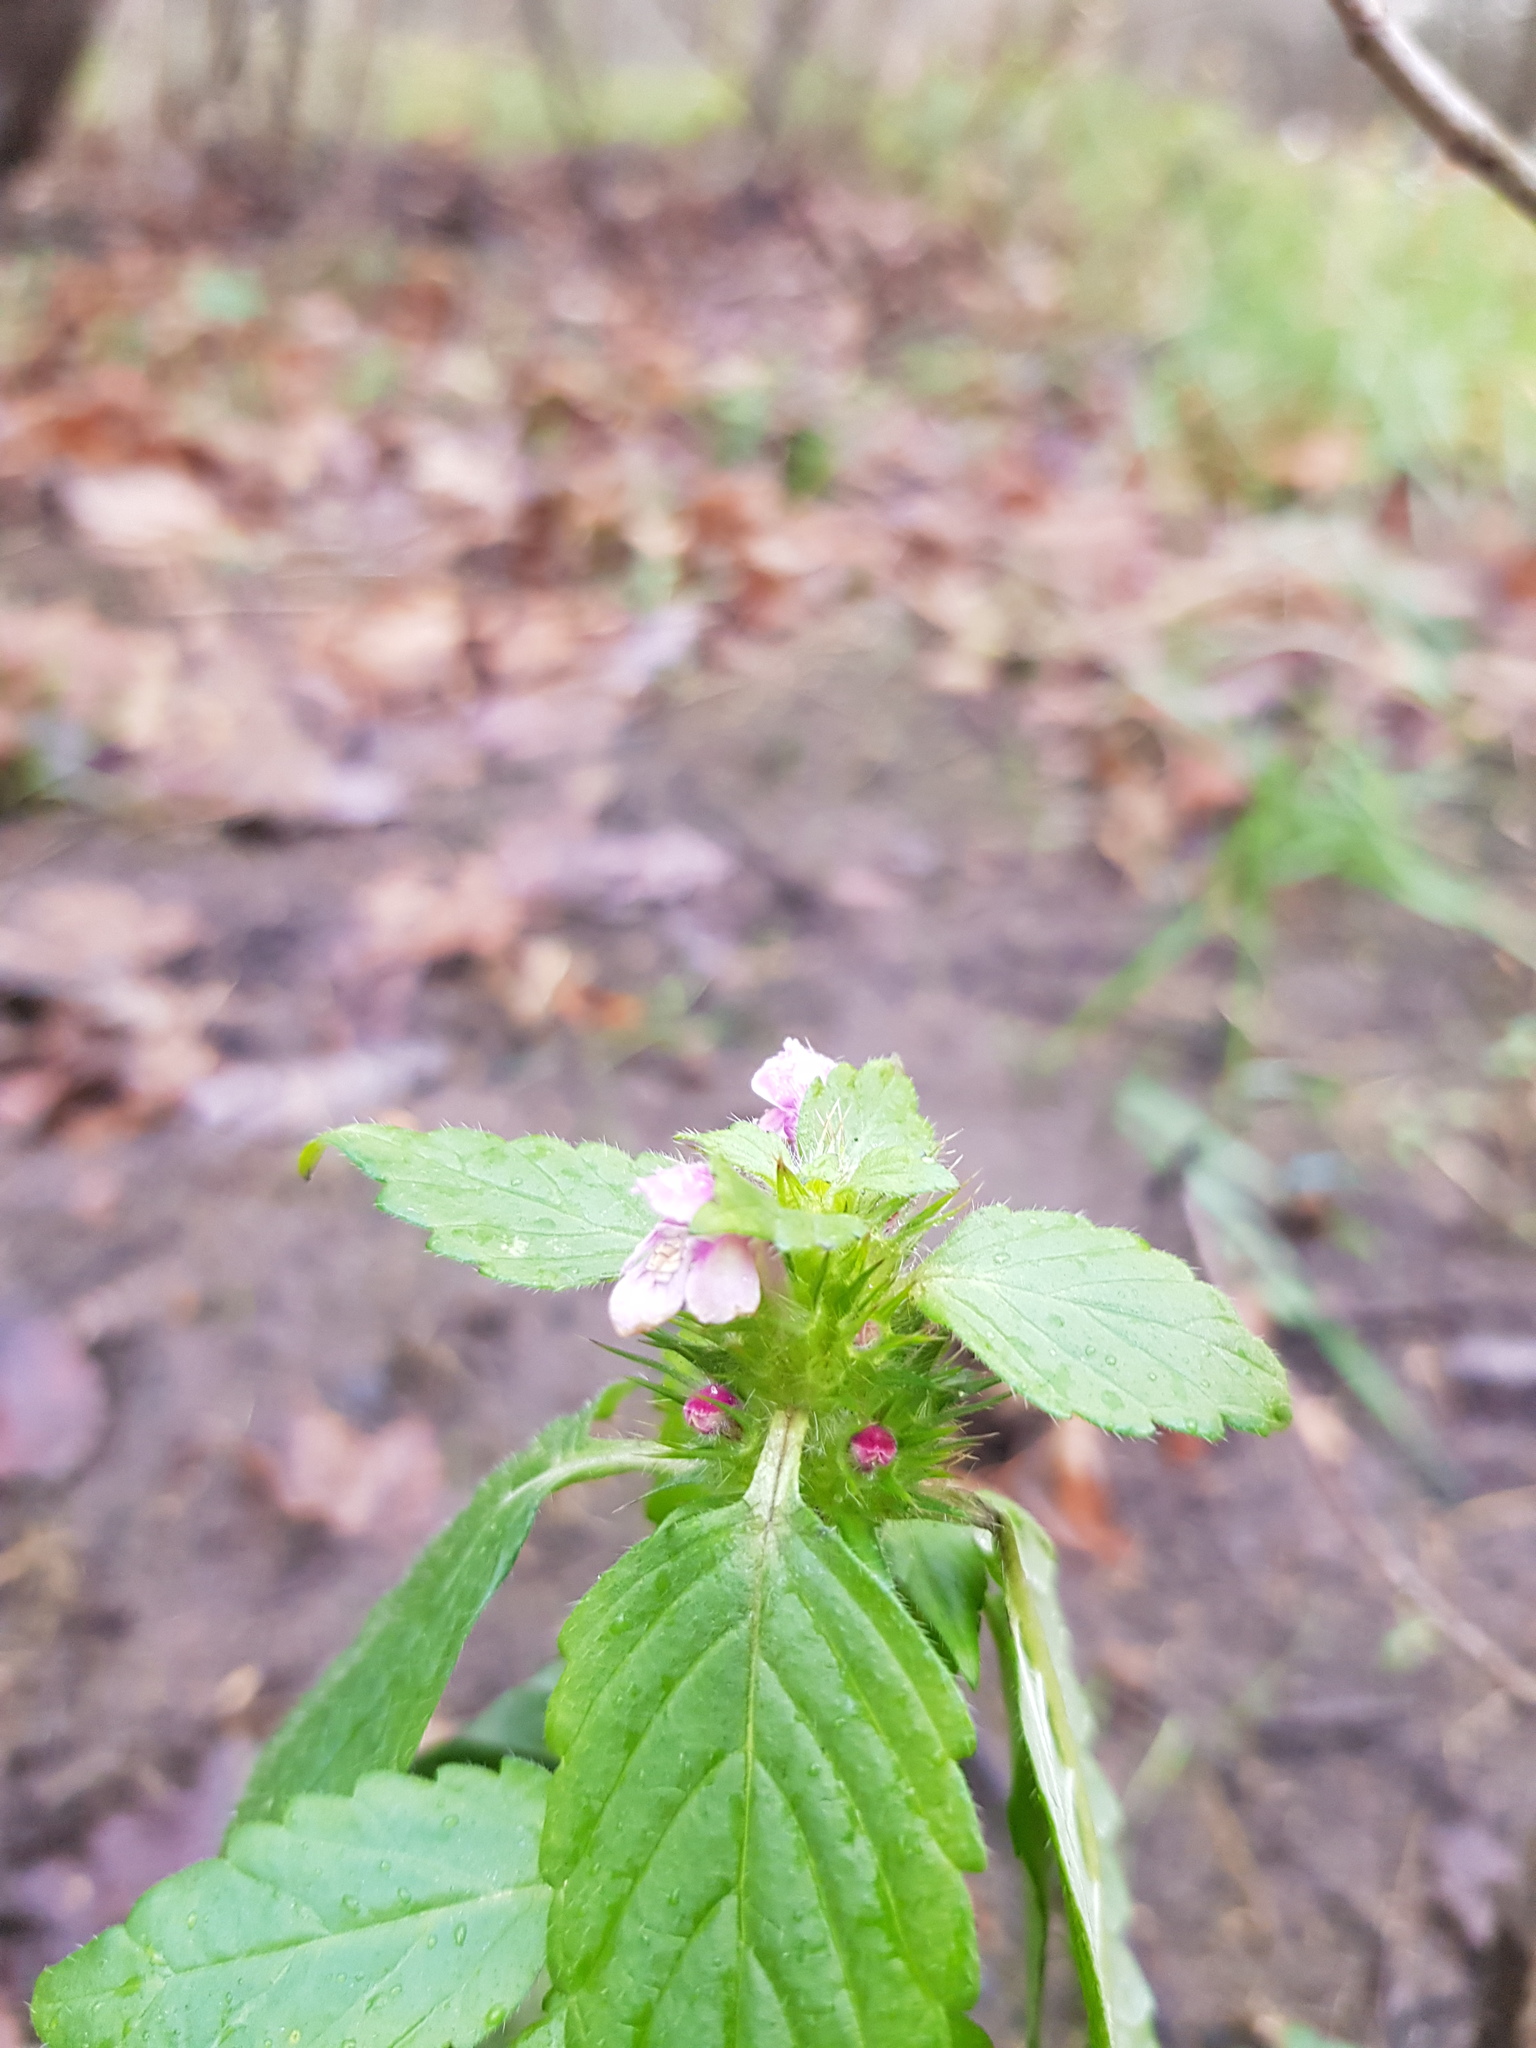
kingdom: Plantae
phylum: Tracheophyta
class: Magnoliopsida
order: Lamiales
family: Lamiaceae
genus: Galeopsis
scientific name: Galeopsis tetrahit
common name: Common hemp-nettle
